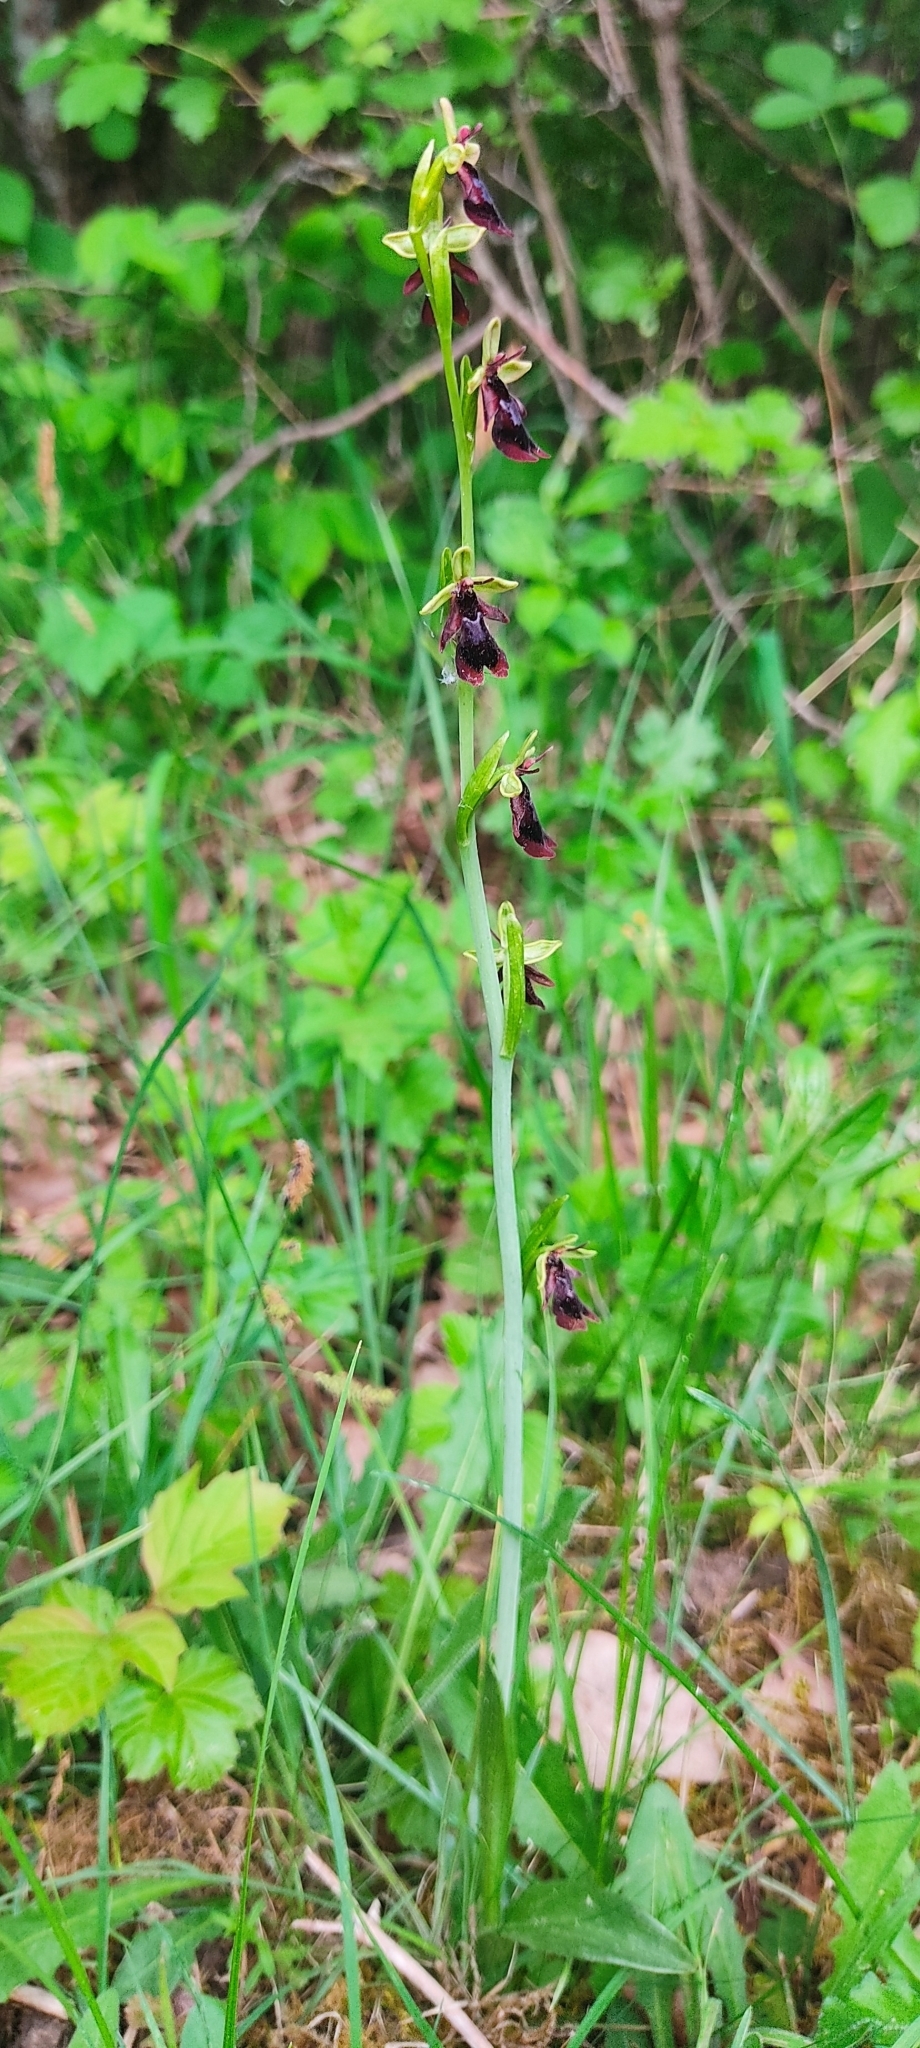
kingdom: Plantae
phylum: Tracheophyta
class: Liliopsida
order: Asparagales
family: Orchidaceae
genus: Ophrys
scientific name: Ophrys insectifera
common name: Fly orchid
